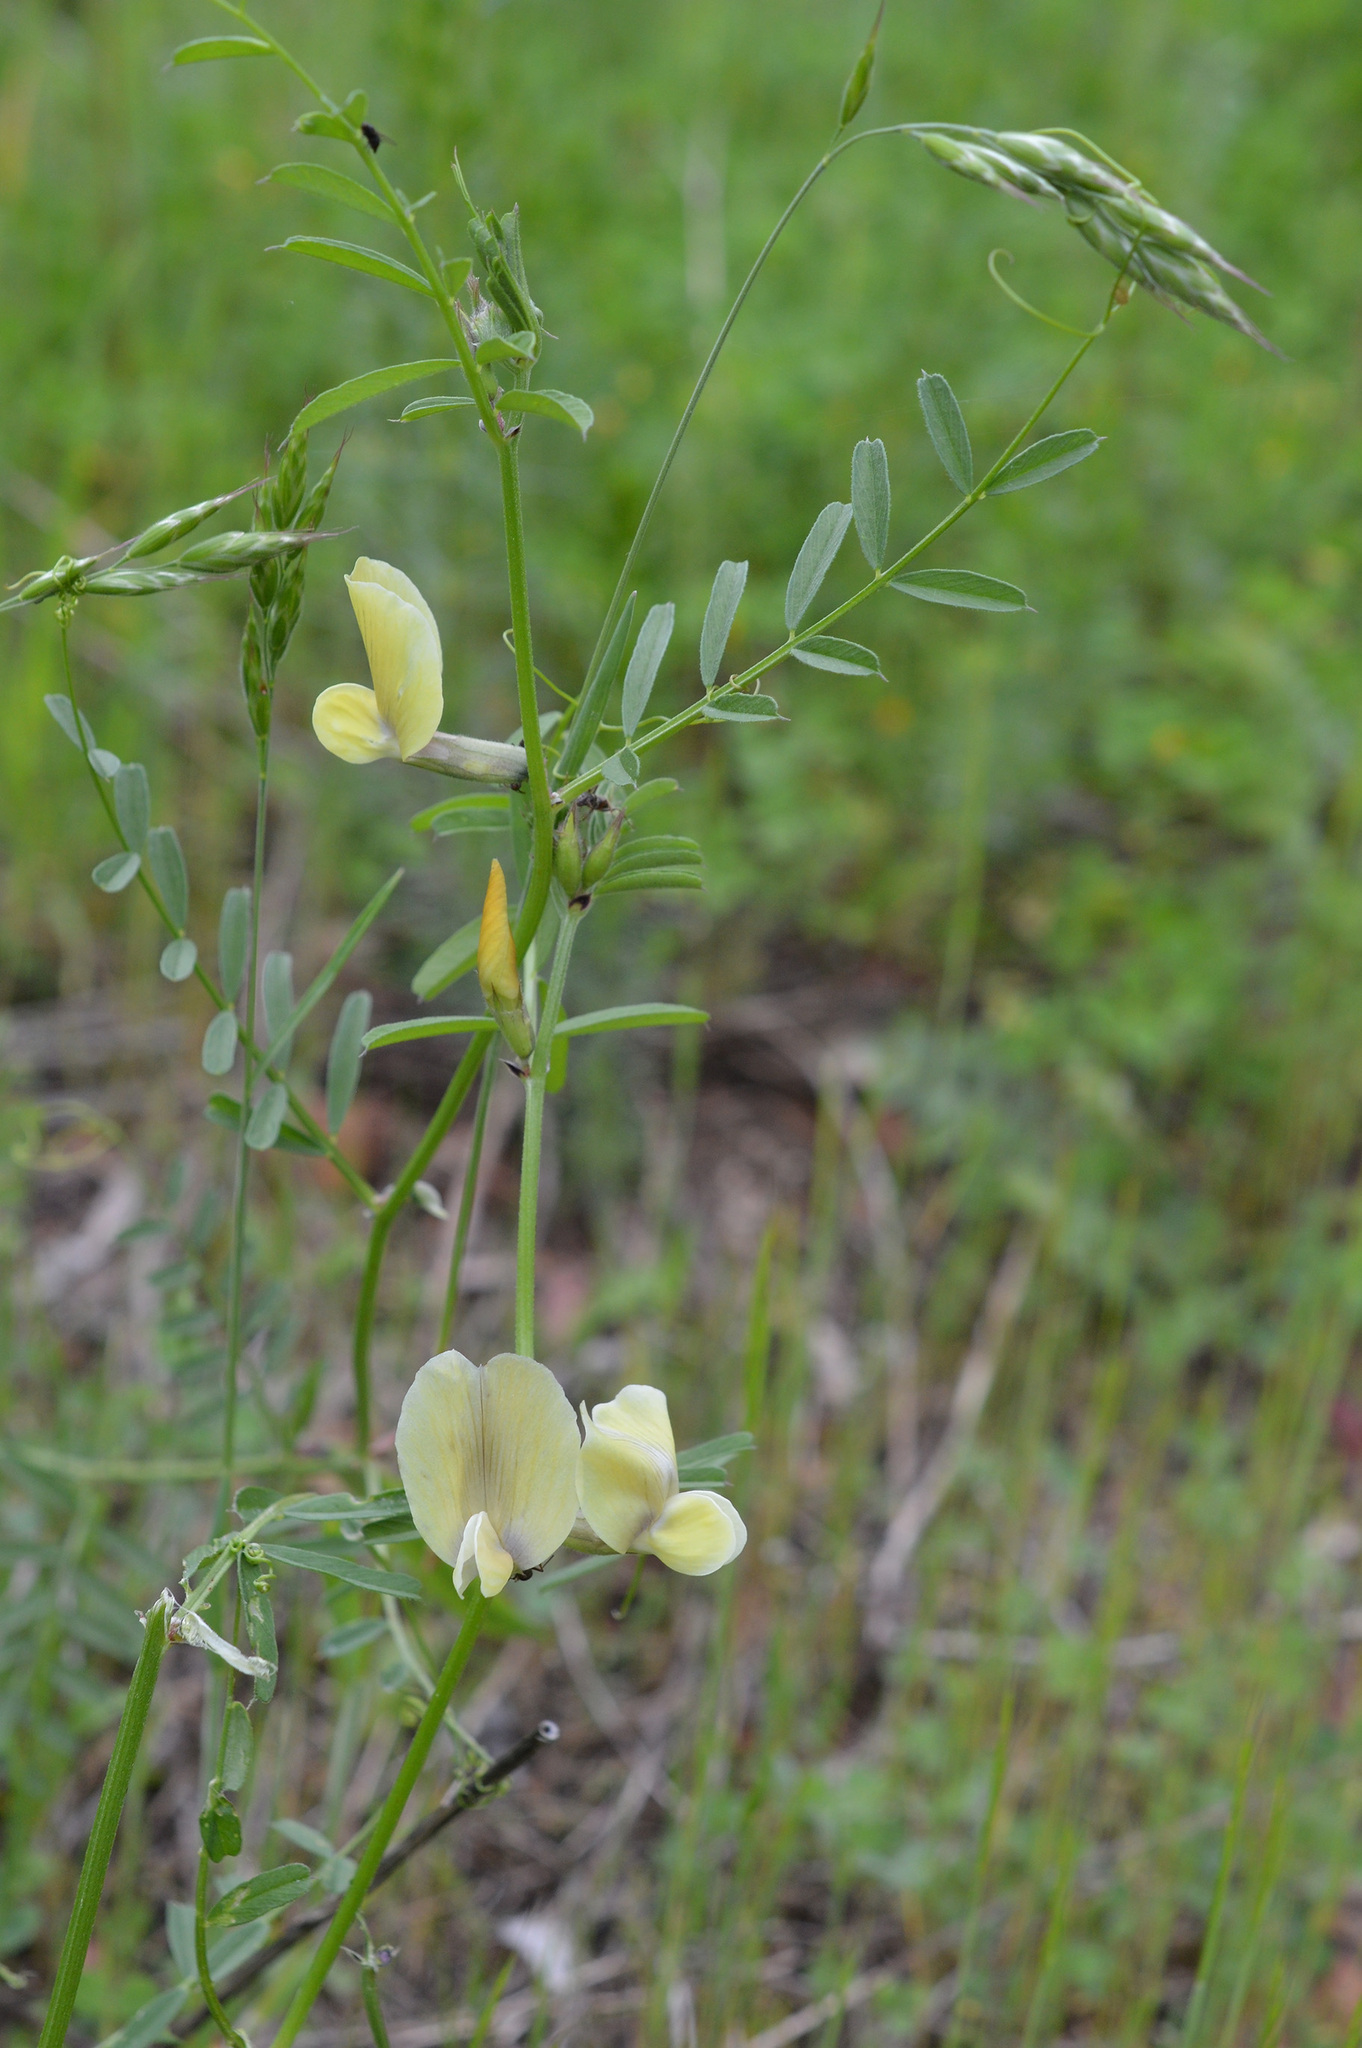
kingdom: Plantae
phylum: Tracheophyta
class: Magnoliopsida
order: Fabales
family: Fabaceae
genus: Vicia
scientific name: Vicia grandiflora
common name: Large yellow vetch
